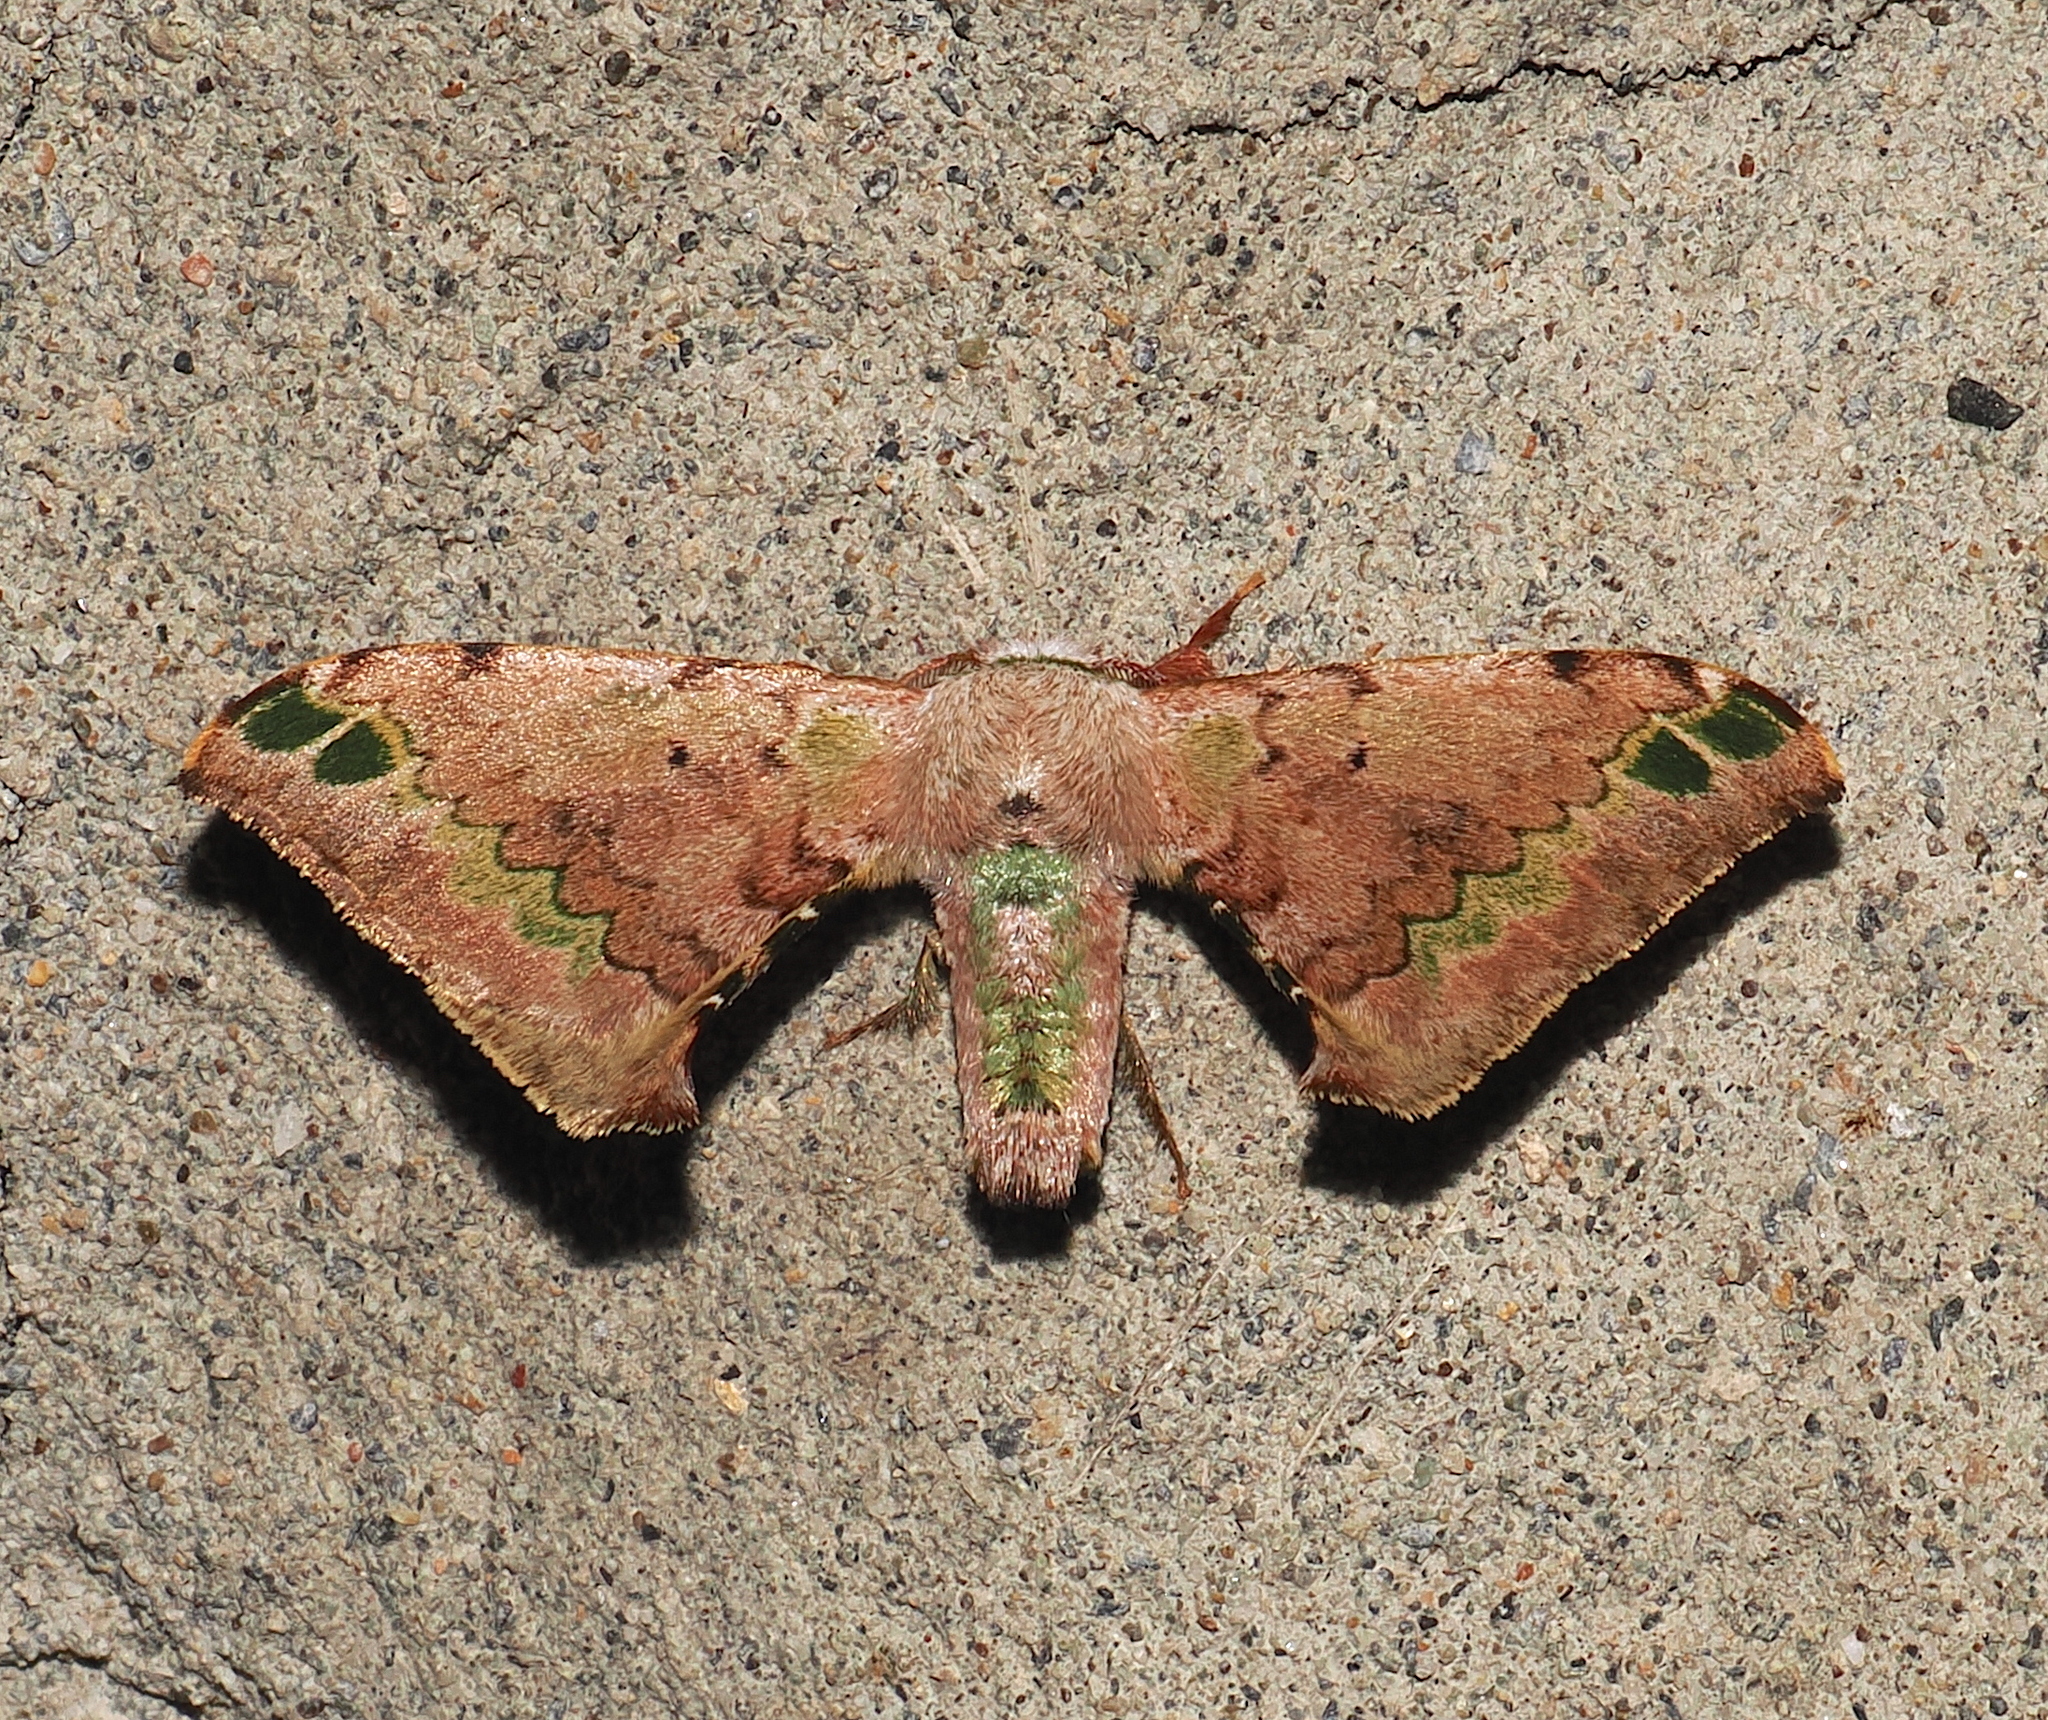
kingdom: Animalia
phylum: Arthropoda
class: Insecta
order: Lepidoptera
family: Bombycidae
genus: Anticla
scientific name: Anticla antica
